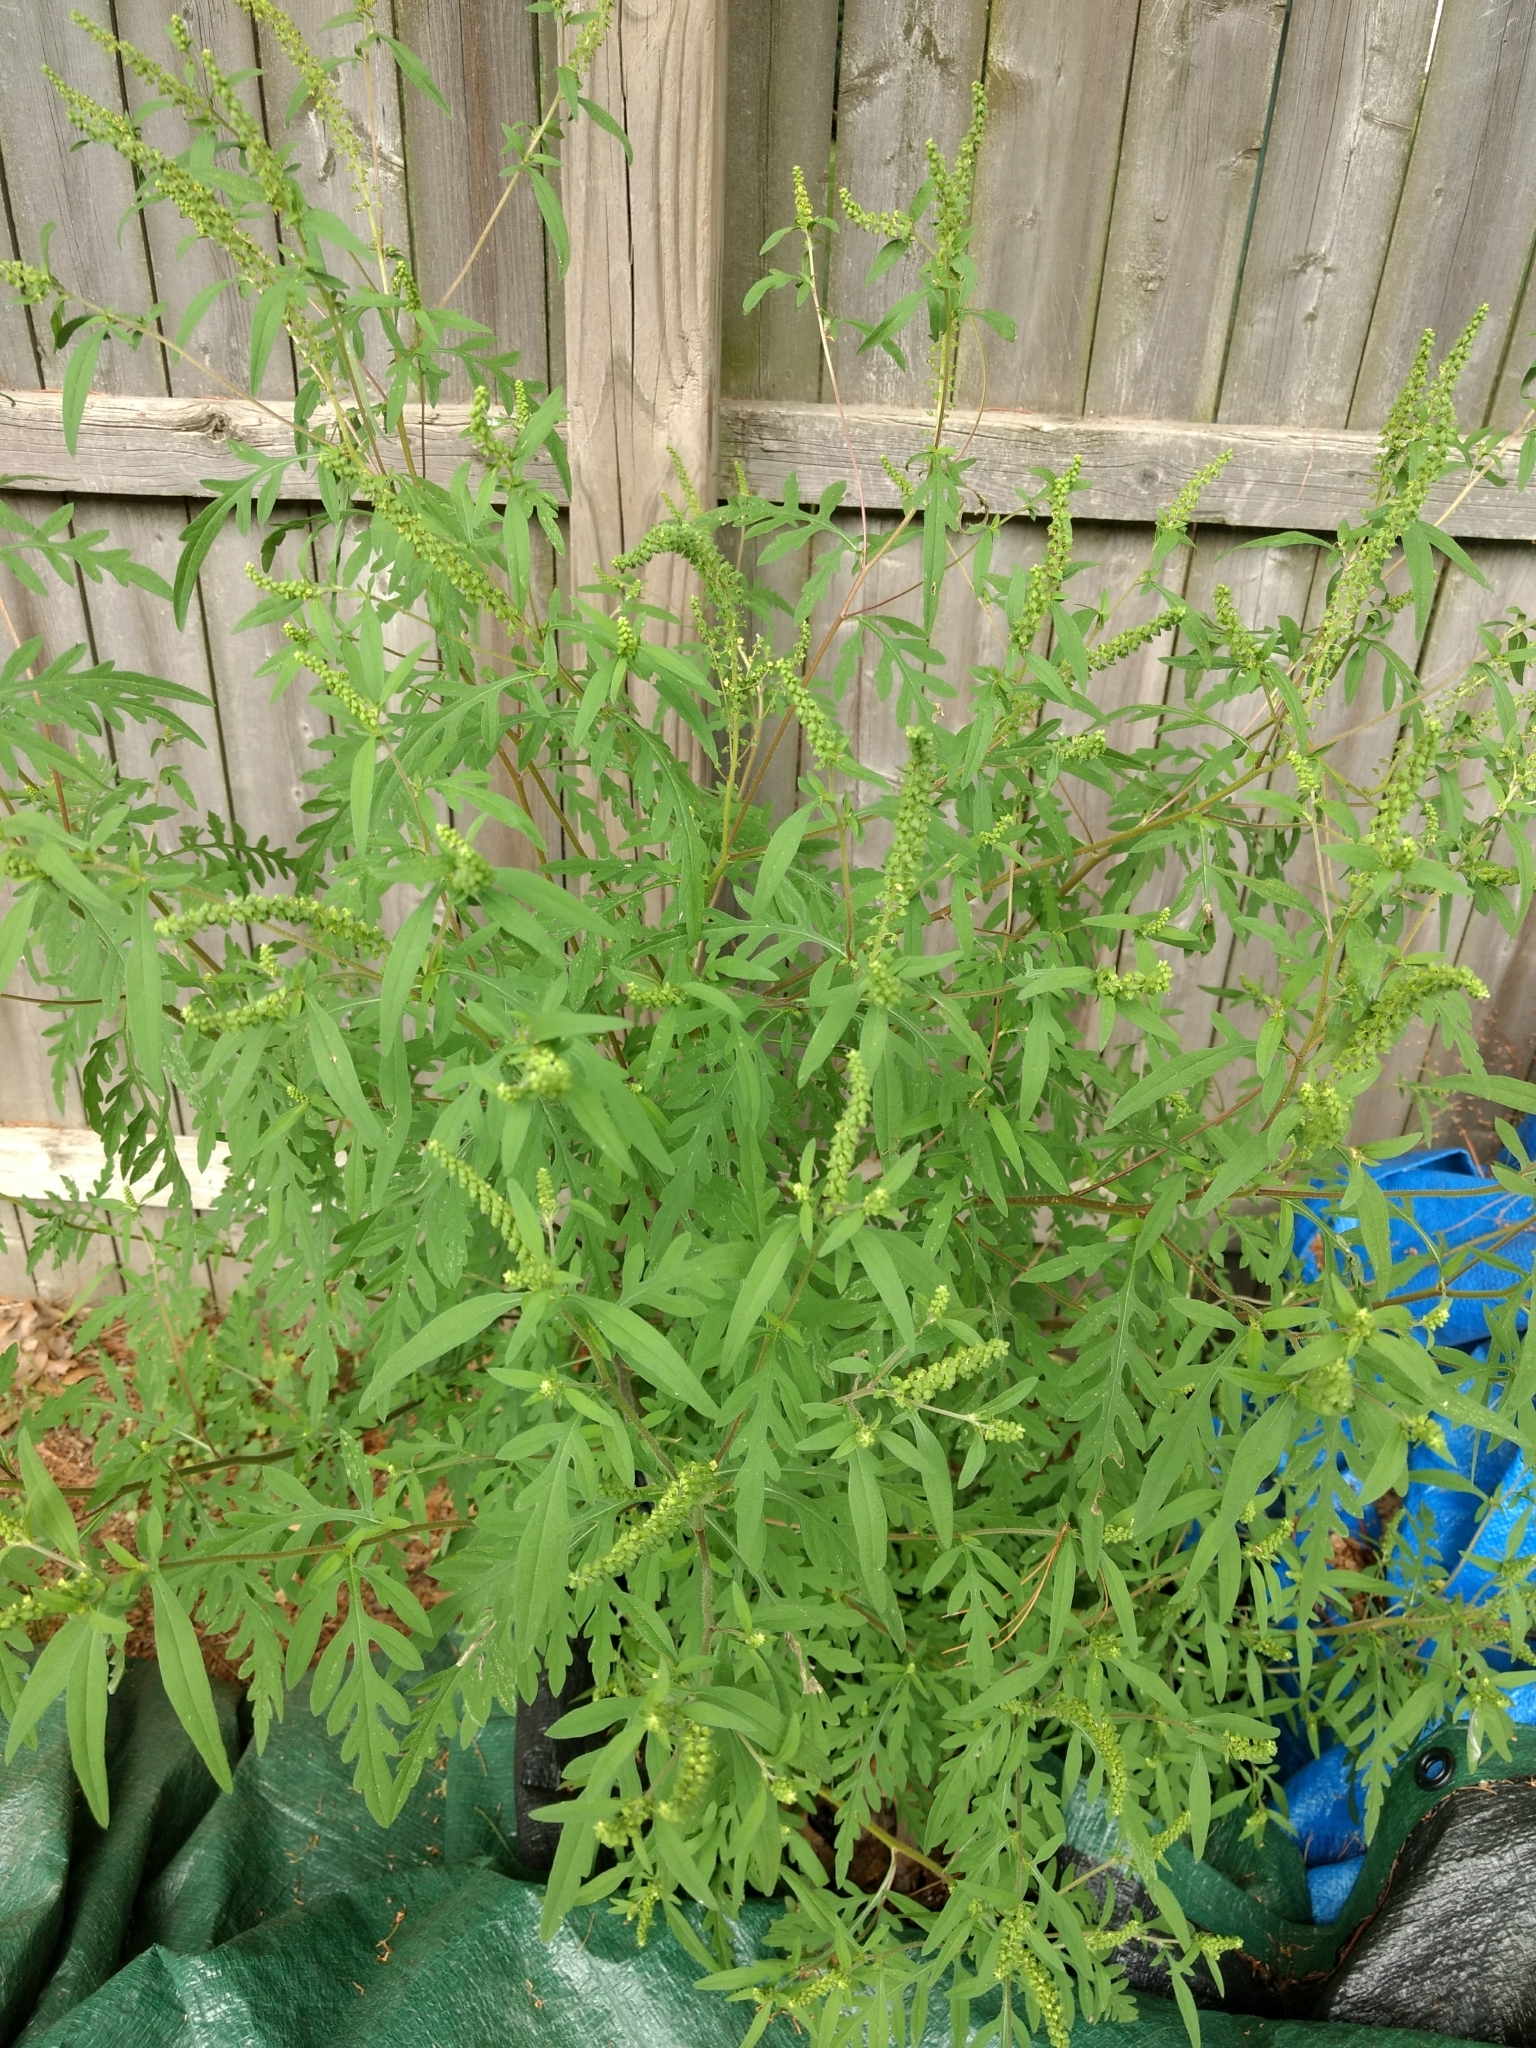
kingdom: Plantae
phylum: Tracheophyta
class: Magnoliopsida
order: Asterales
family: Asteraceae
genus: Ambrosia
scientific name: Ambrosia artemisiifolia
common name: Annual ragweed
